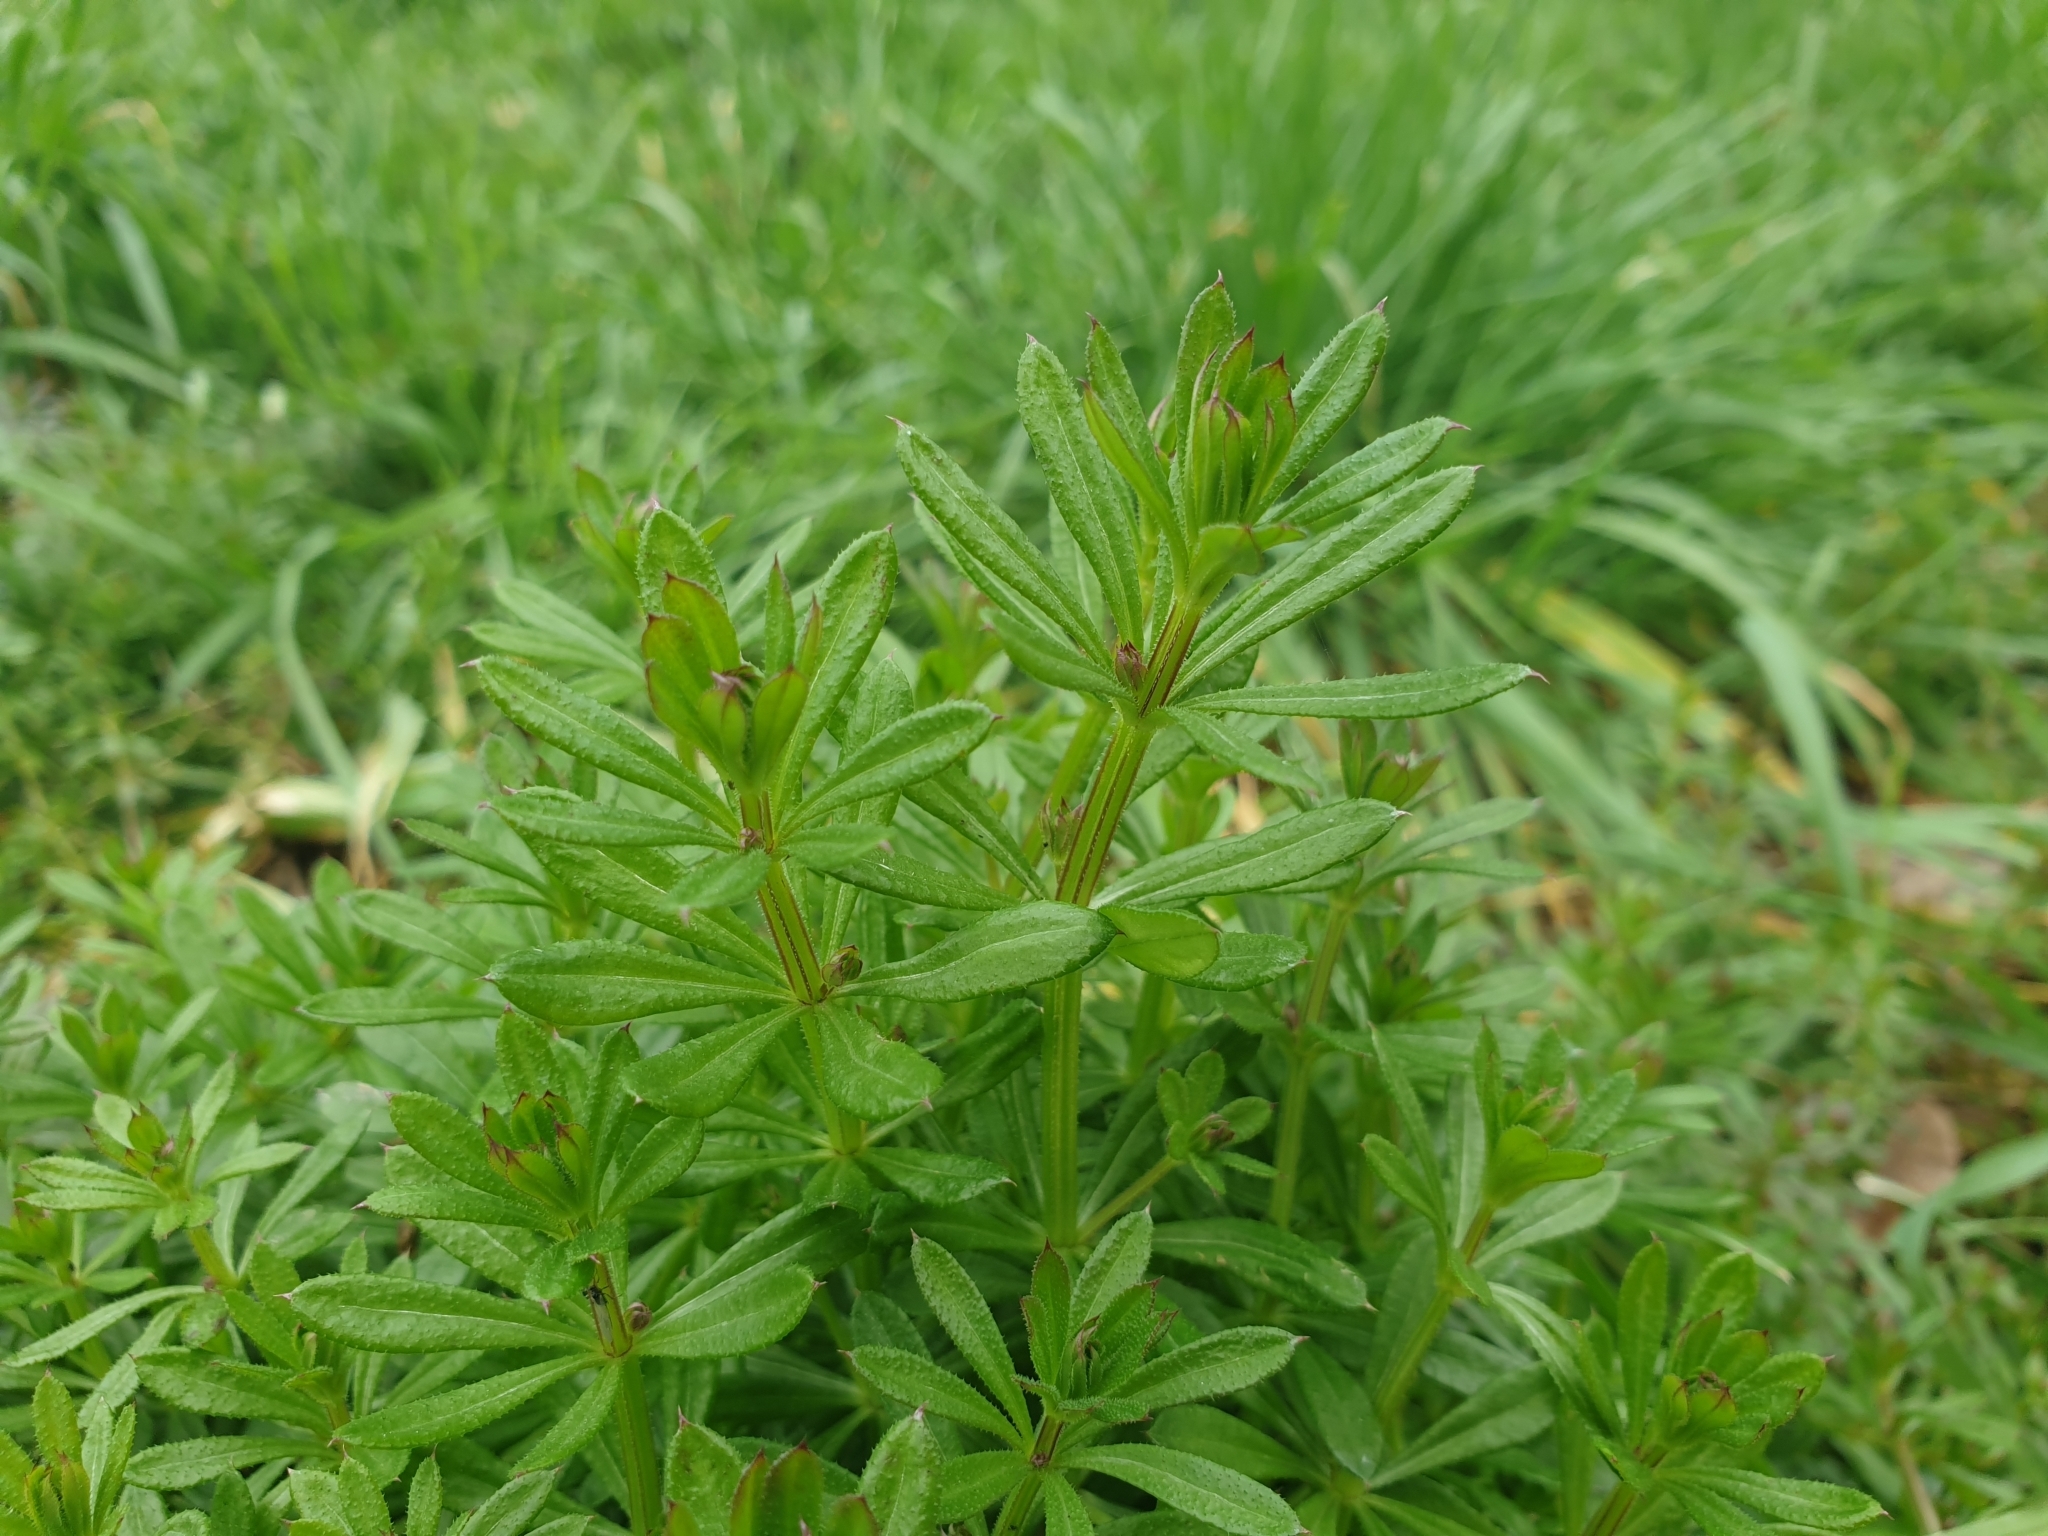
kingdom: Plantae
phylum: Tracheophyta
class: Magnoliopsida
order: Gentianales
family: Rubiaceae
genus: Galium
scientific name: Galium aparine
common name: Cleavers
